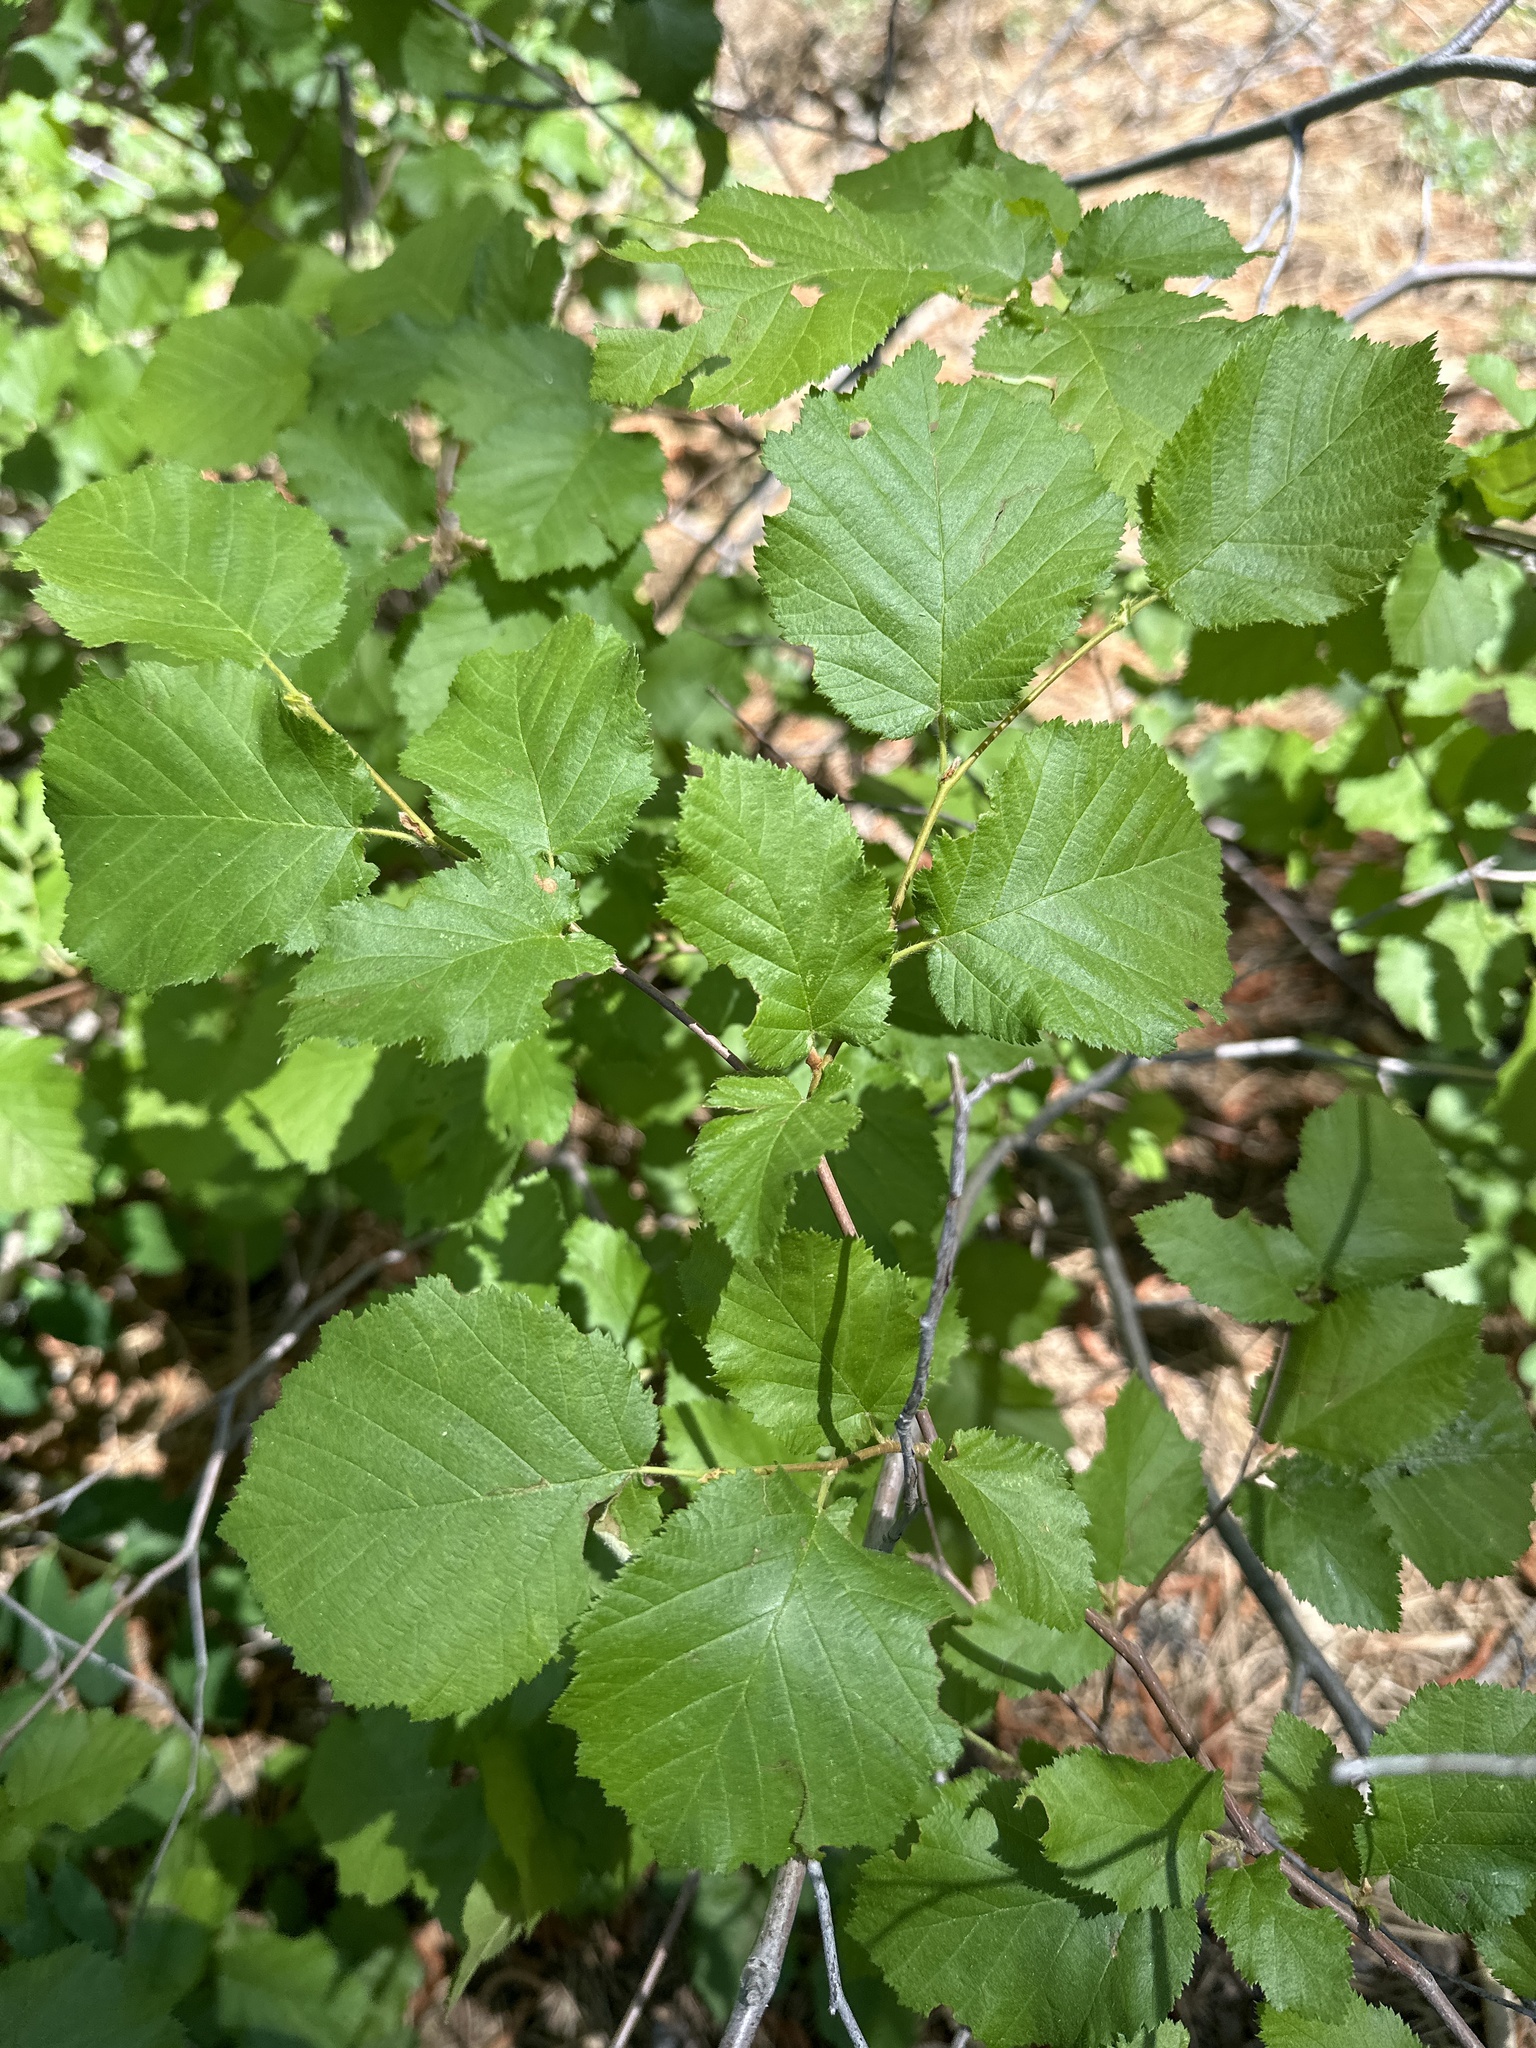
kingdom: Plantae
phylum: Tracheophyta
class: Magnoliopsida
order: Fagales
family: Betulaceae
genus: Corylus
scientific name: Corylus cornuta
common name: Beaked hazel
